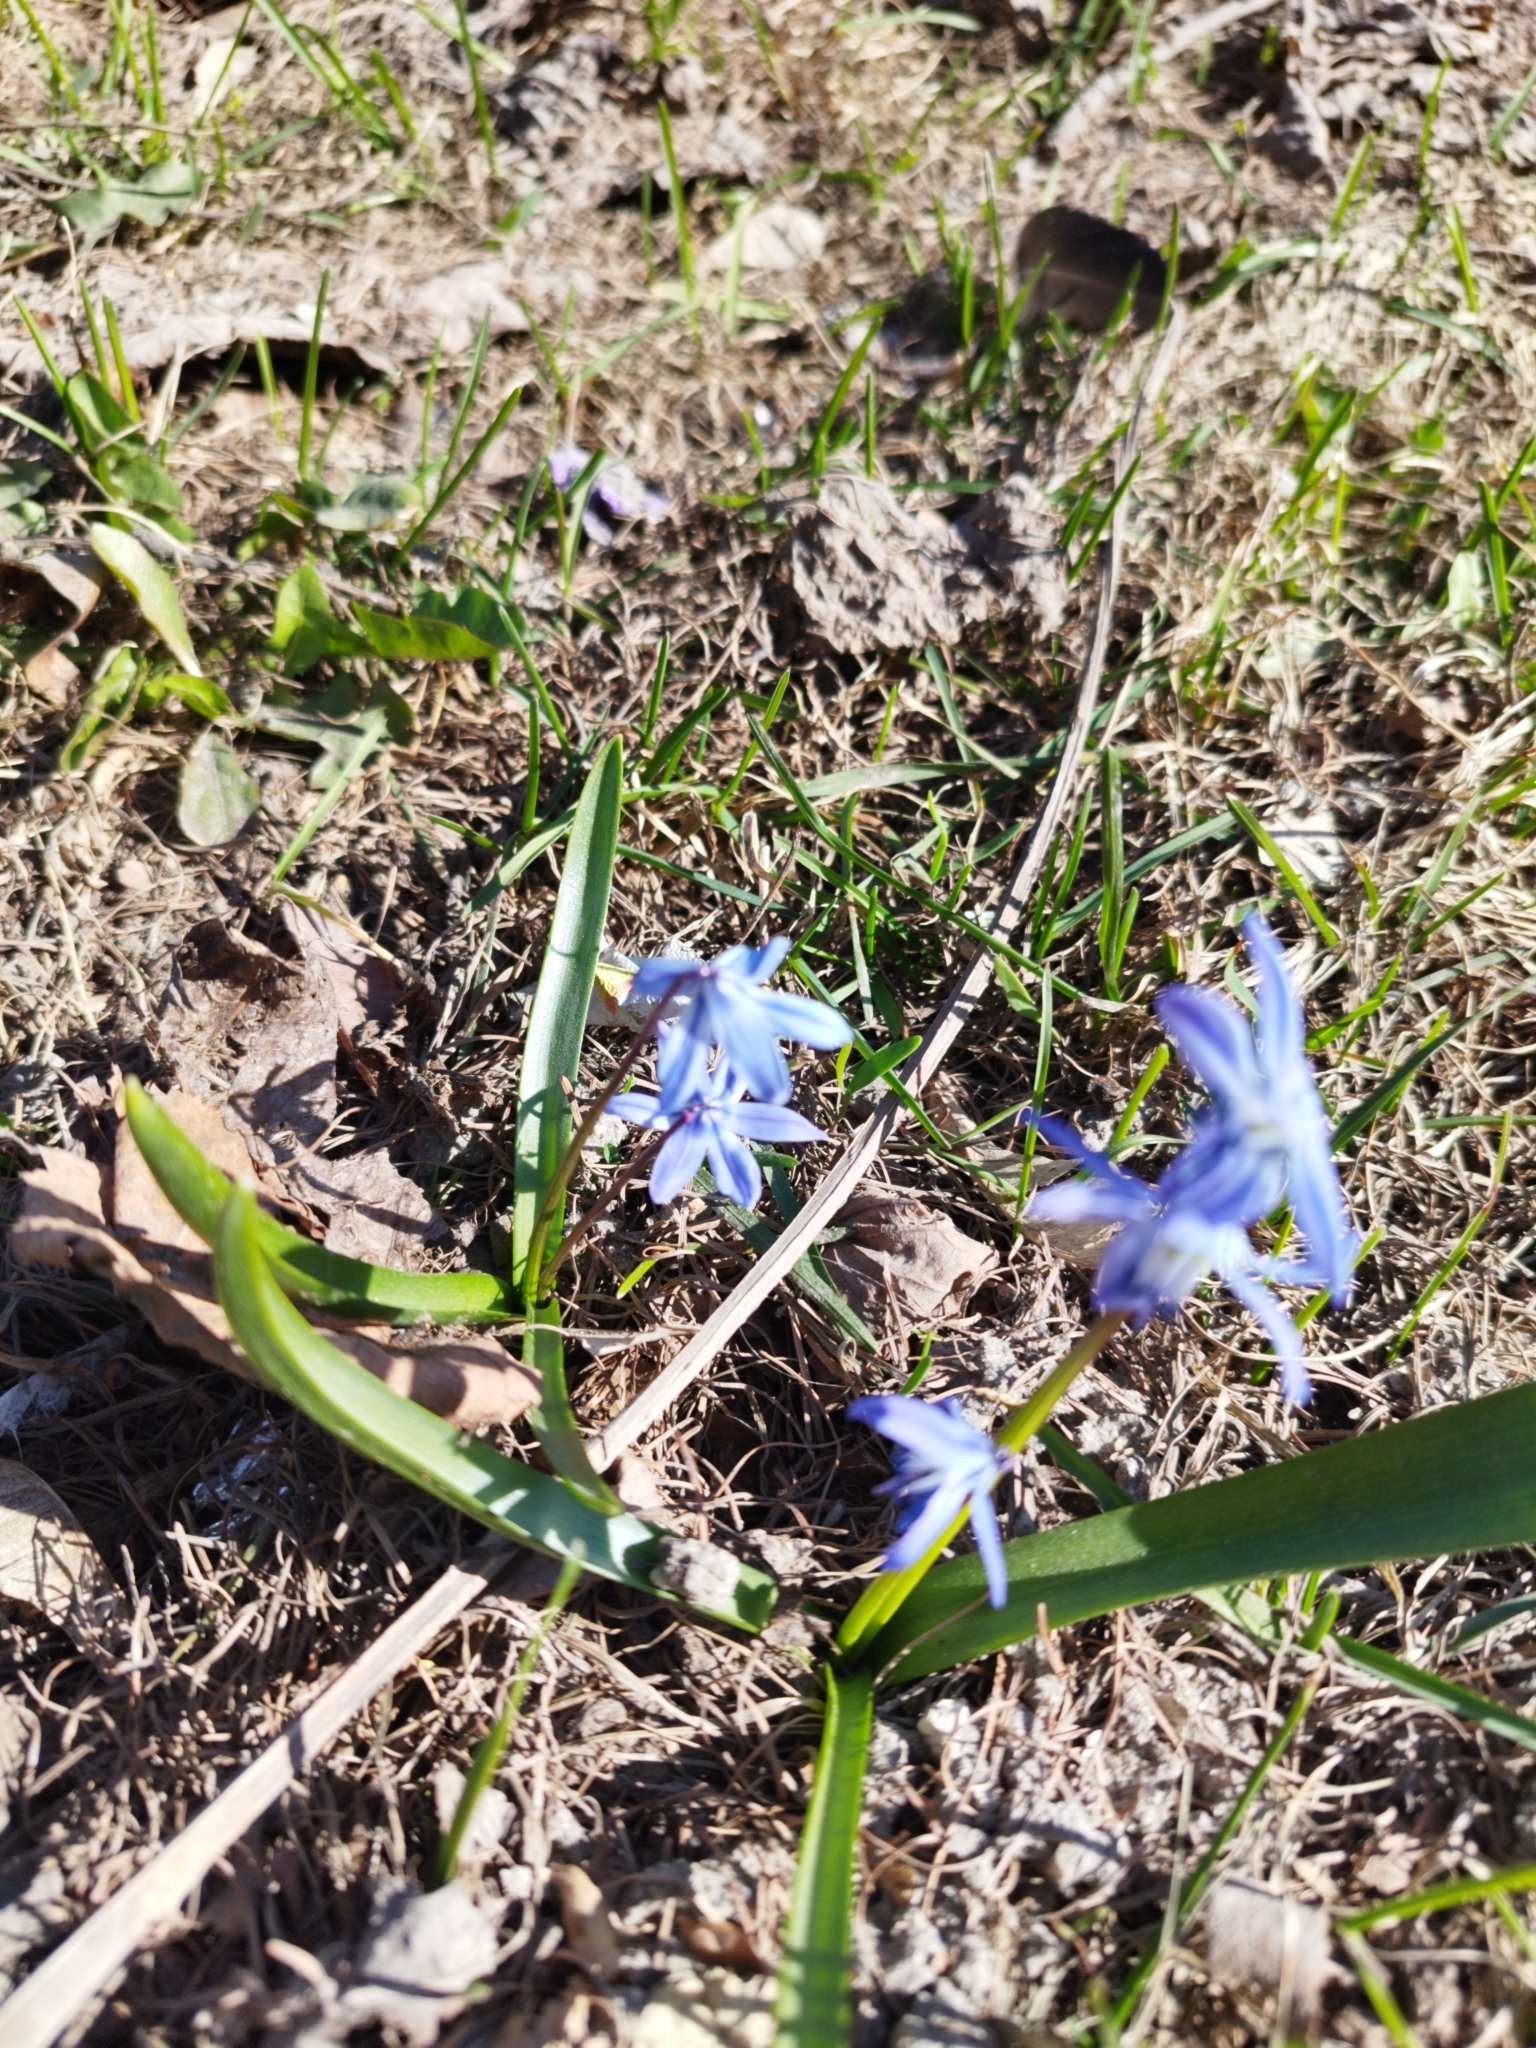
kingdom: Plantae
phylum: Tracheophyta
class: Liliopsida
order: Asparagales
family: Asparagaceae
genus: Scilla
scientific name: Scilla siberica
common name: Siberian squill
